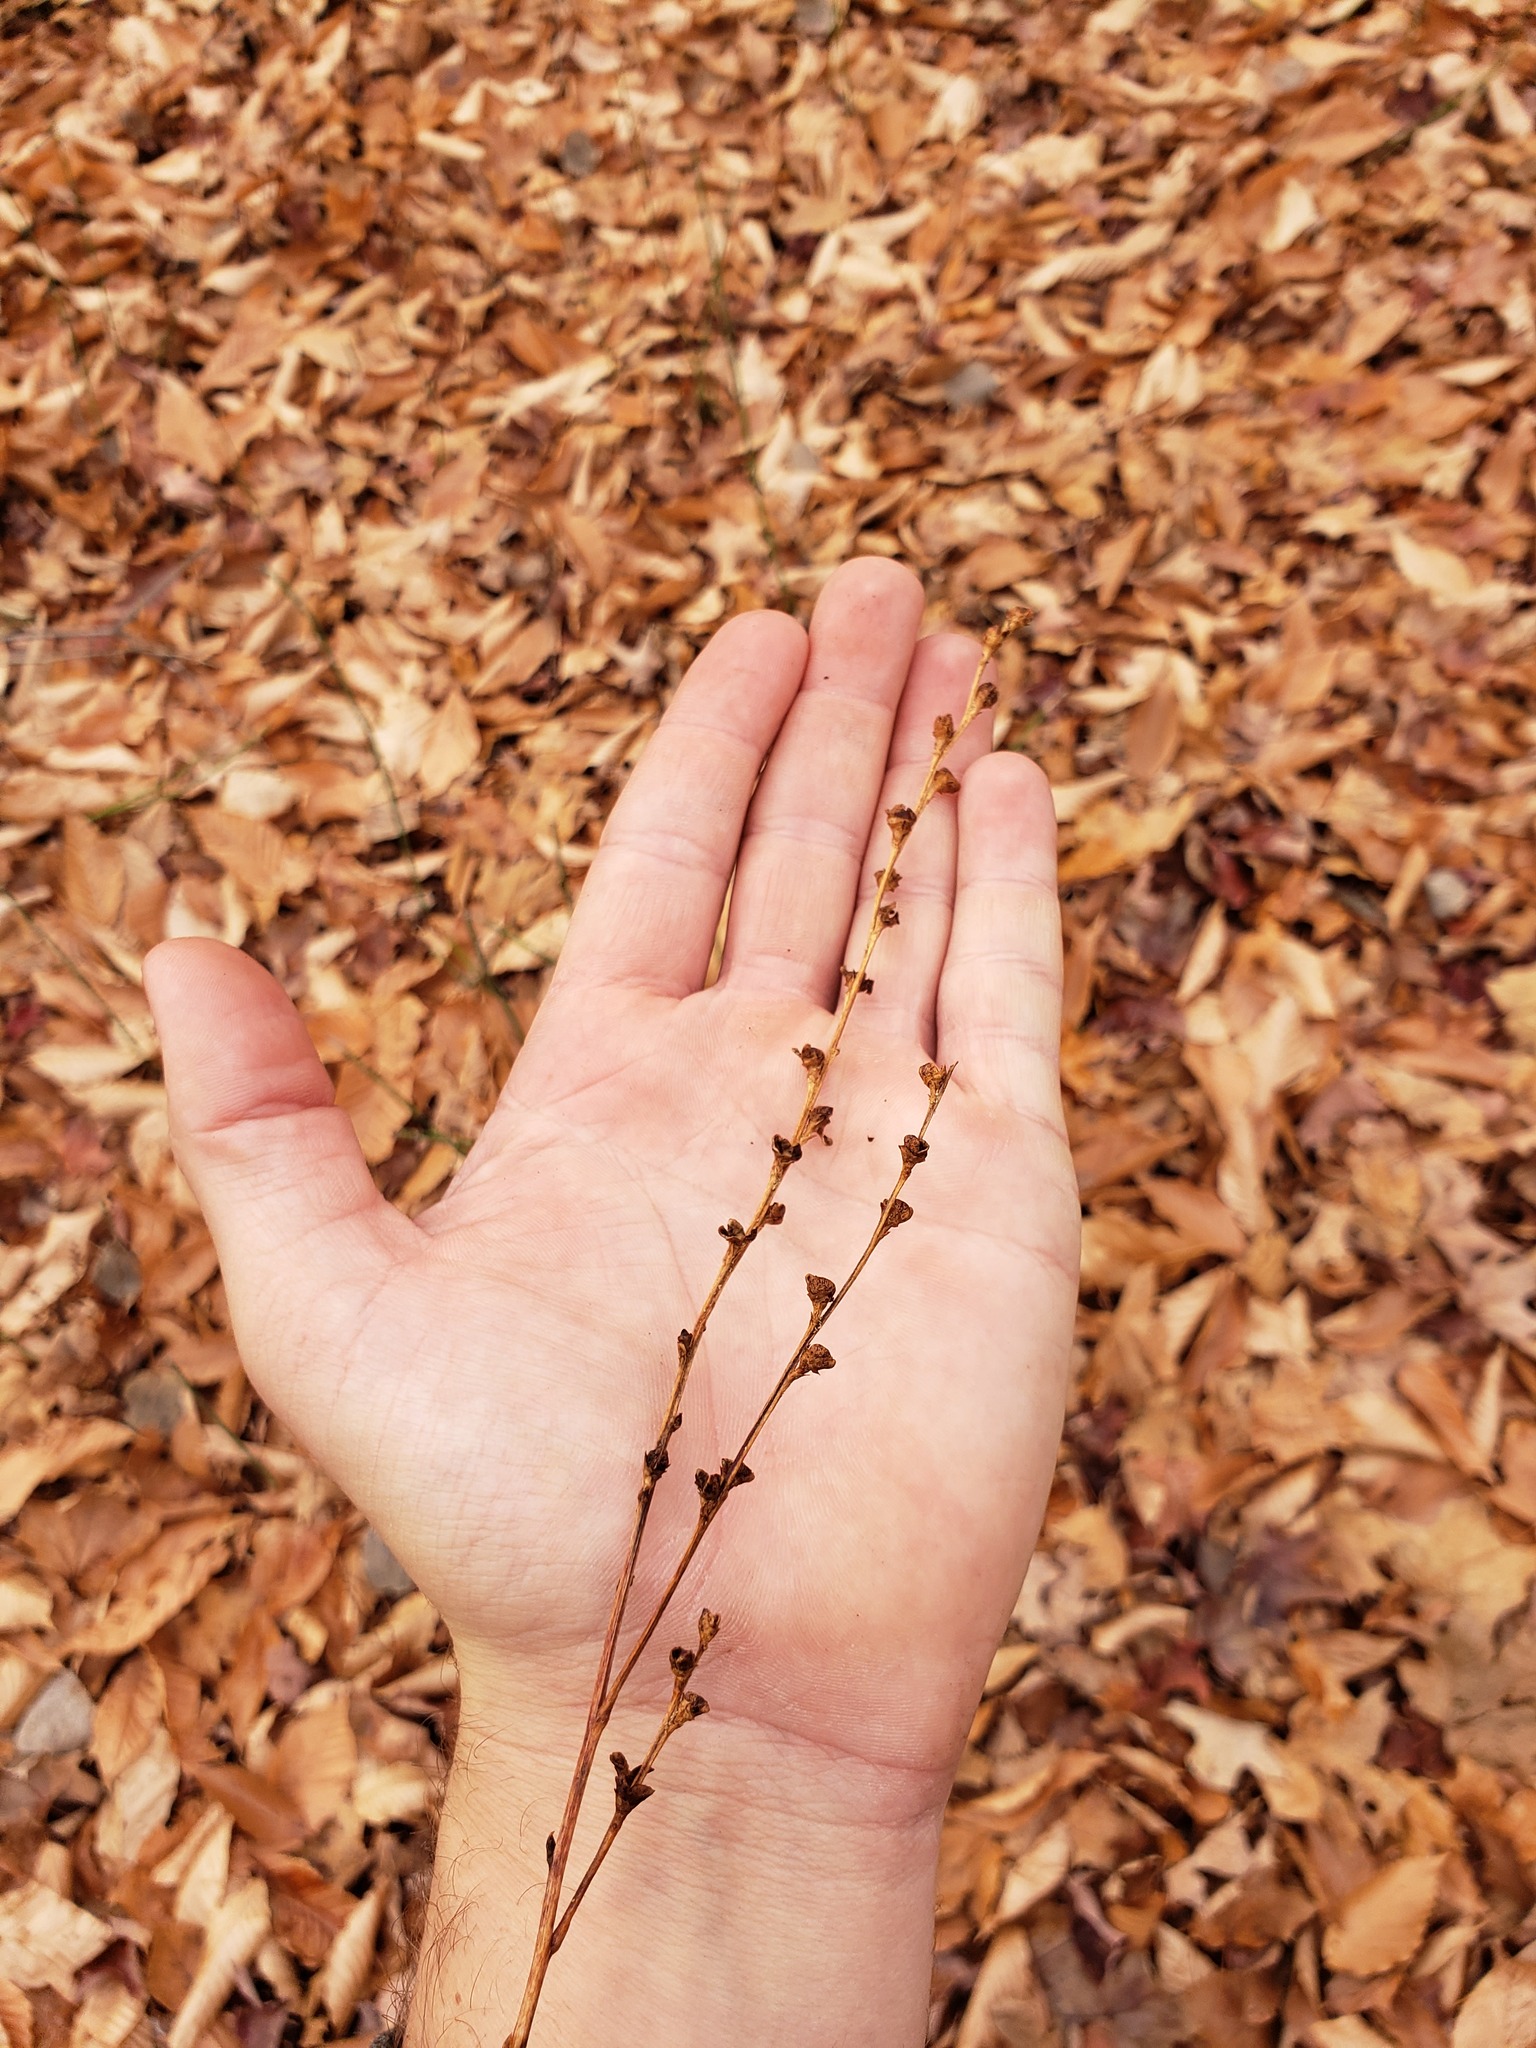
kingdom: Plantae
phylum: Tracheophyta
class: Magnoliopsida
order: Lamiales
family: Orobanchaceae
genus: Epifagus
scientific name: Epifagus virginiana
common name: Beechdrops
